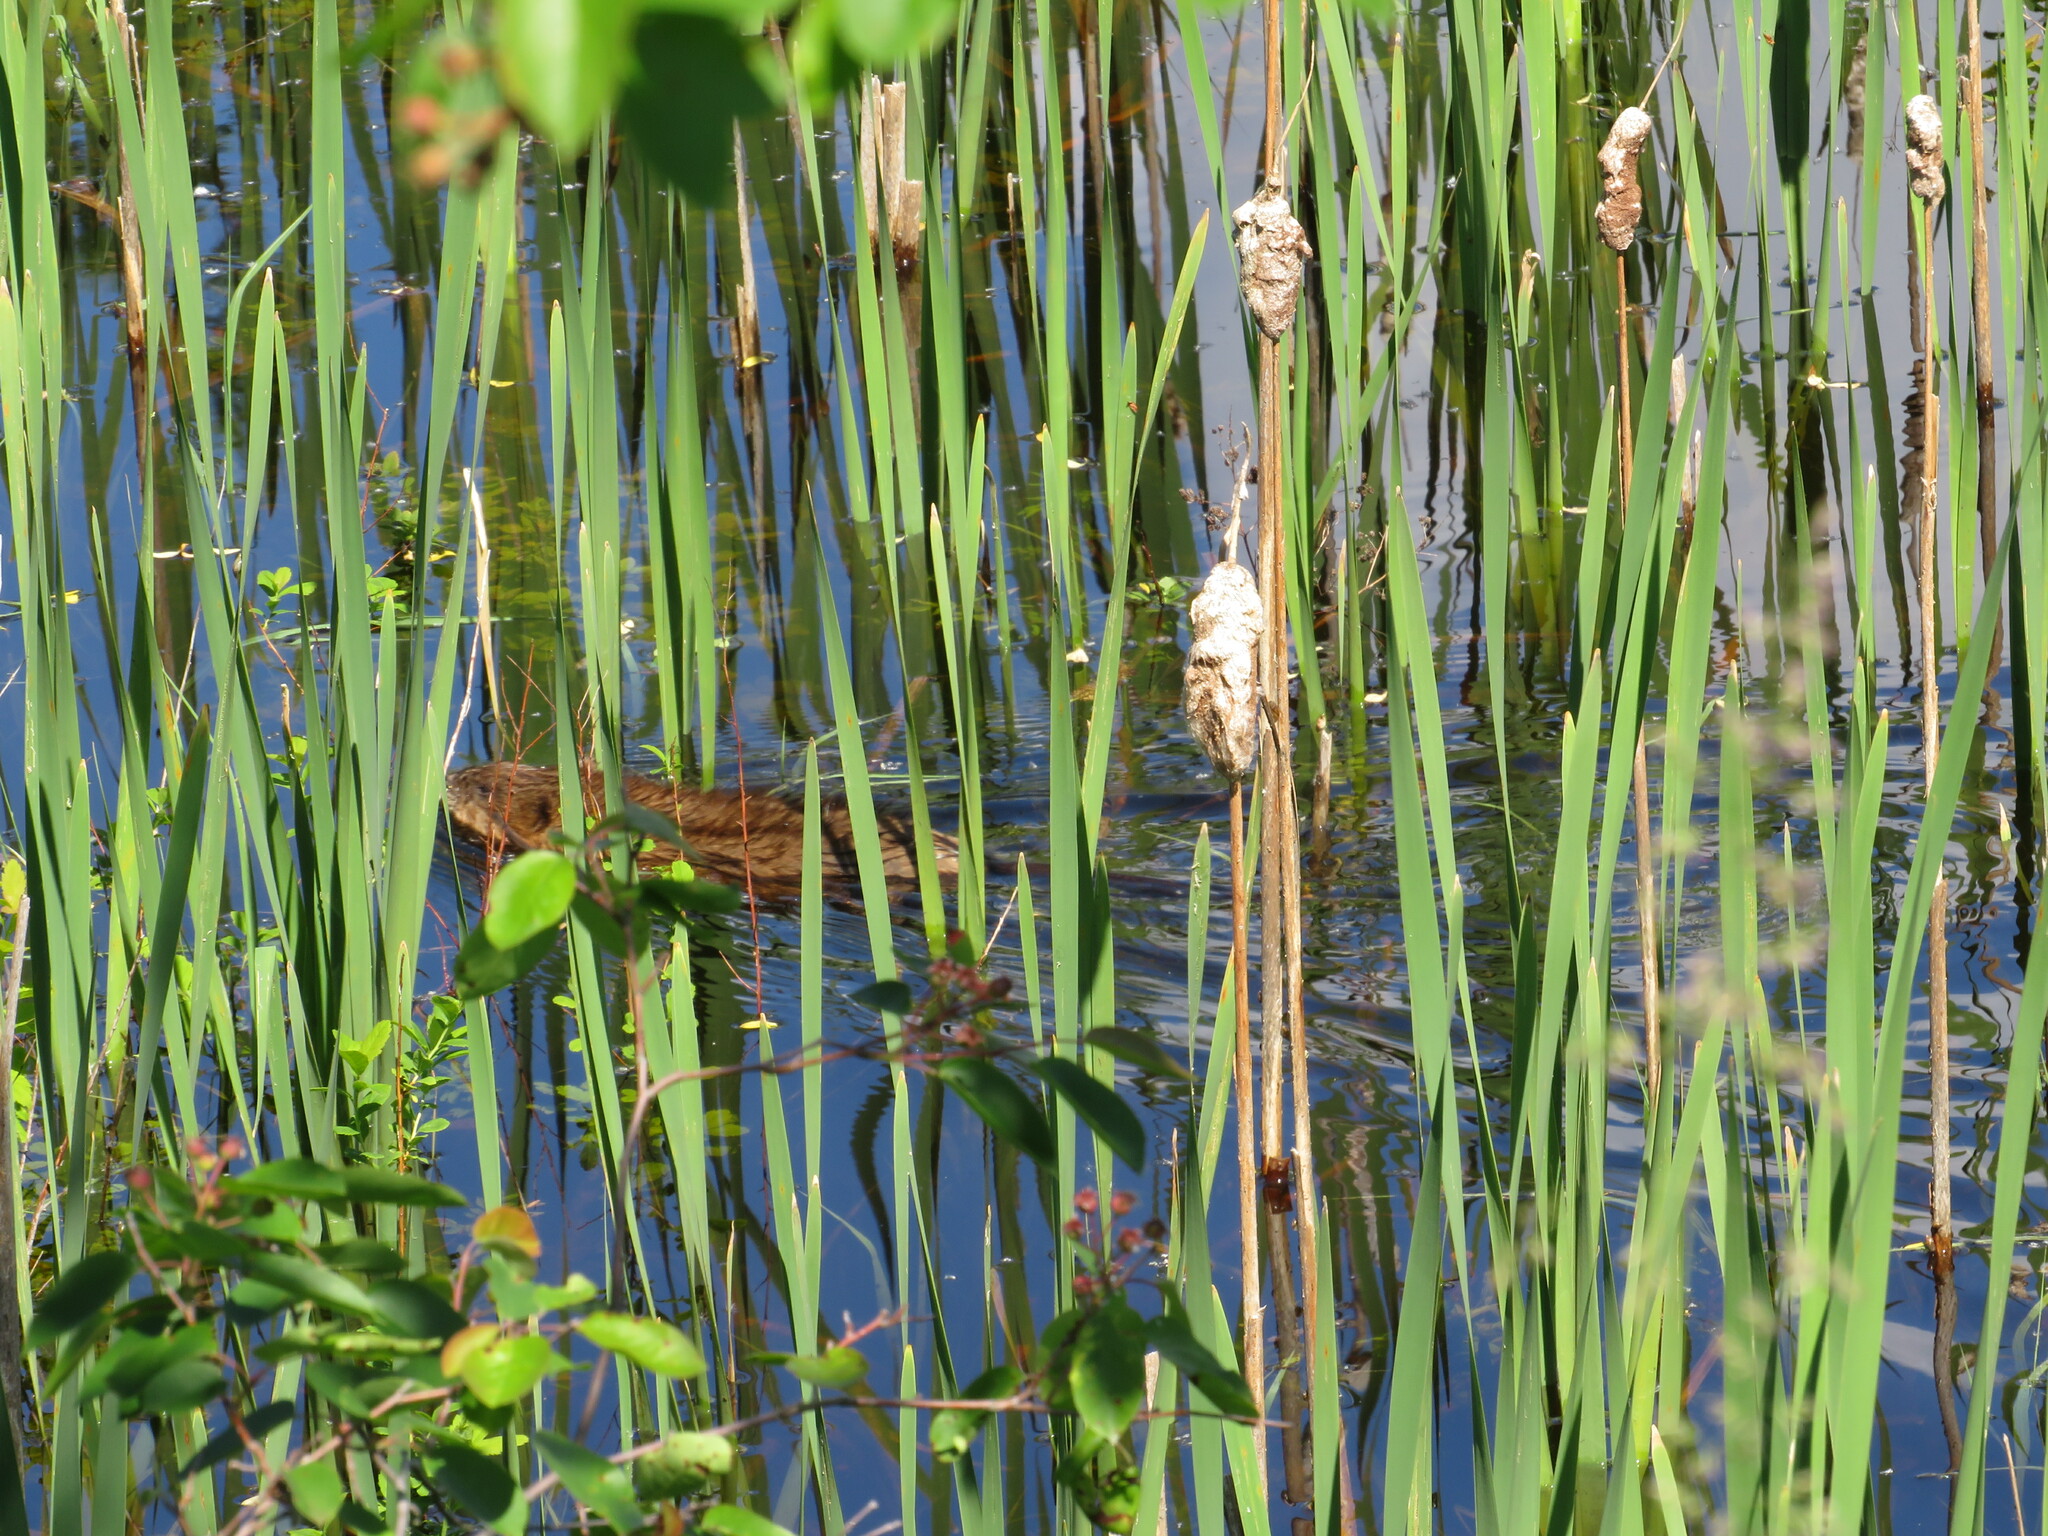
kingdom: Animalia
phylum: Chordata
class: Mammalia
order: Rodentia
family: Cricetidae
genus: Ondatra
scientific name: Ondatra zibethicus
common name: Muskrat
